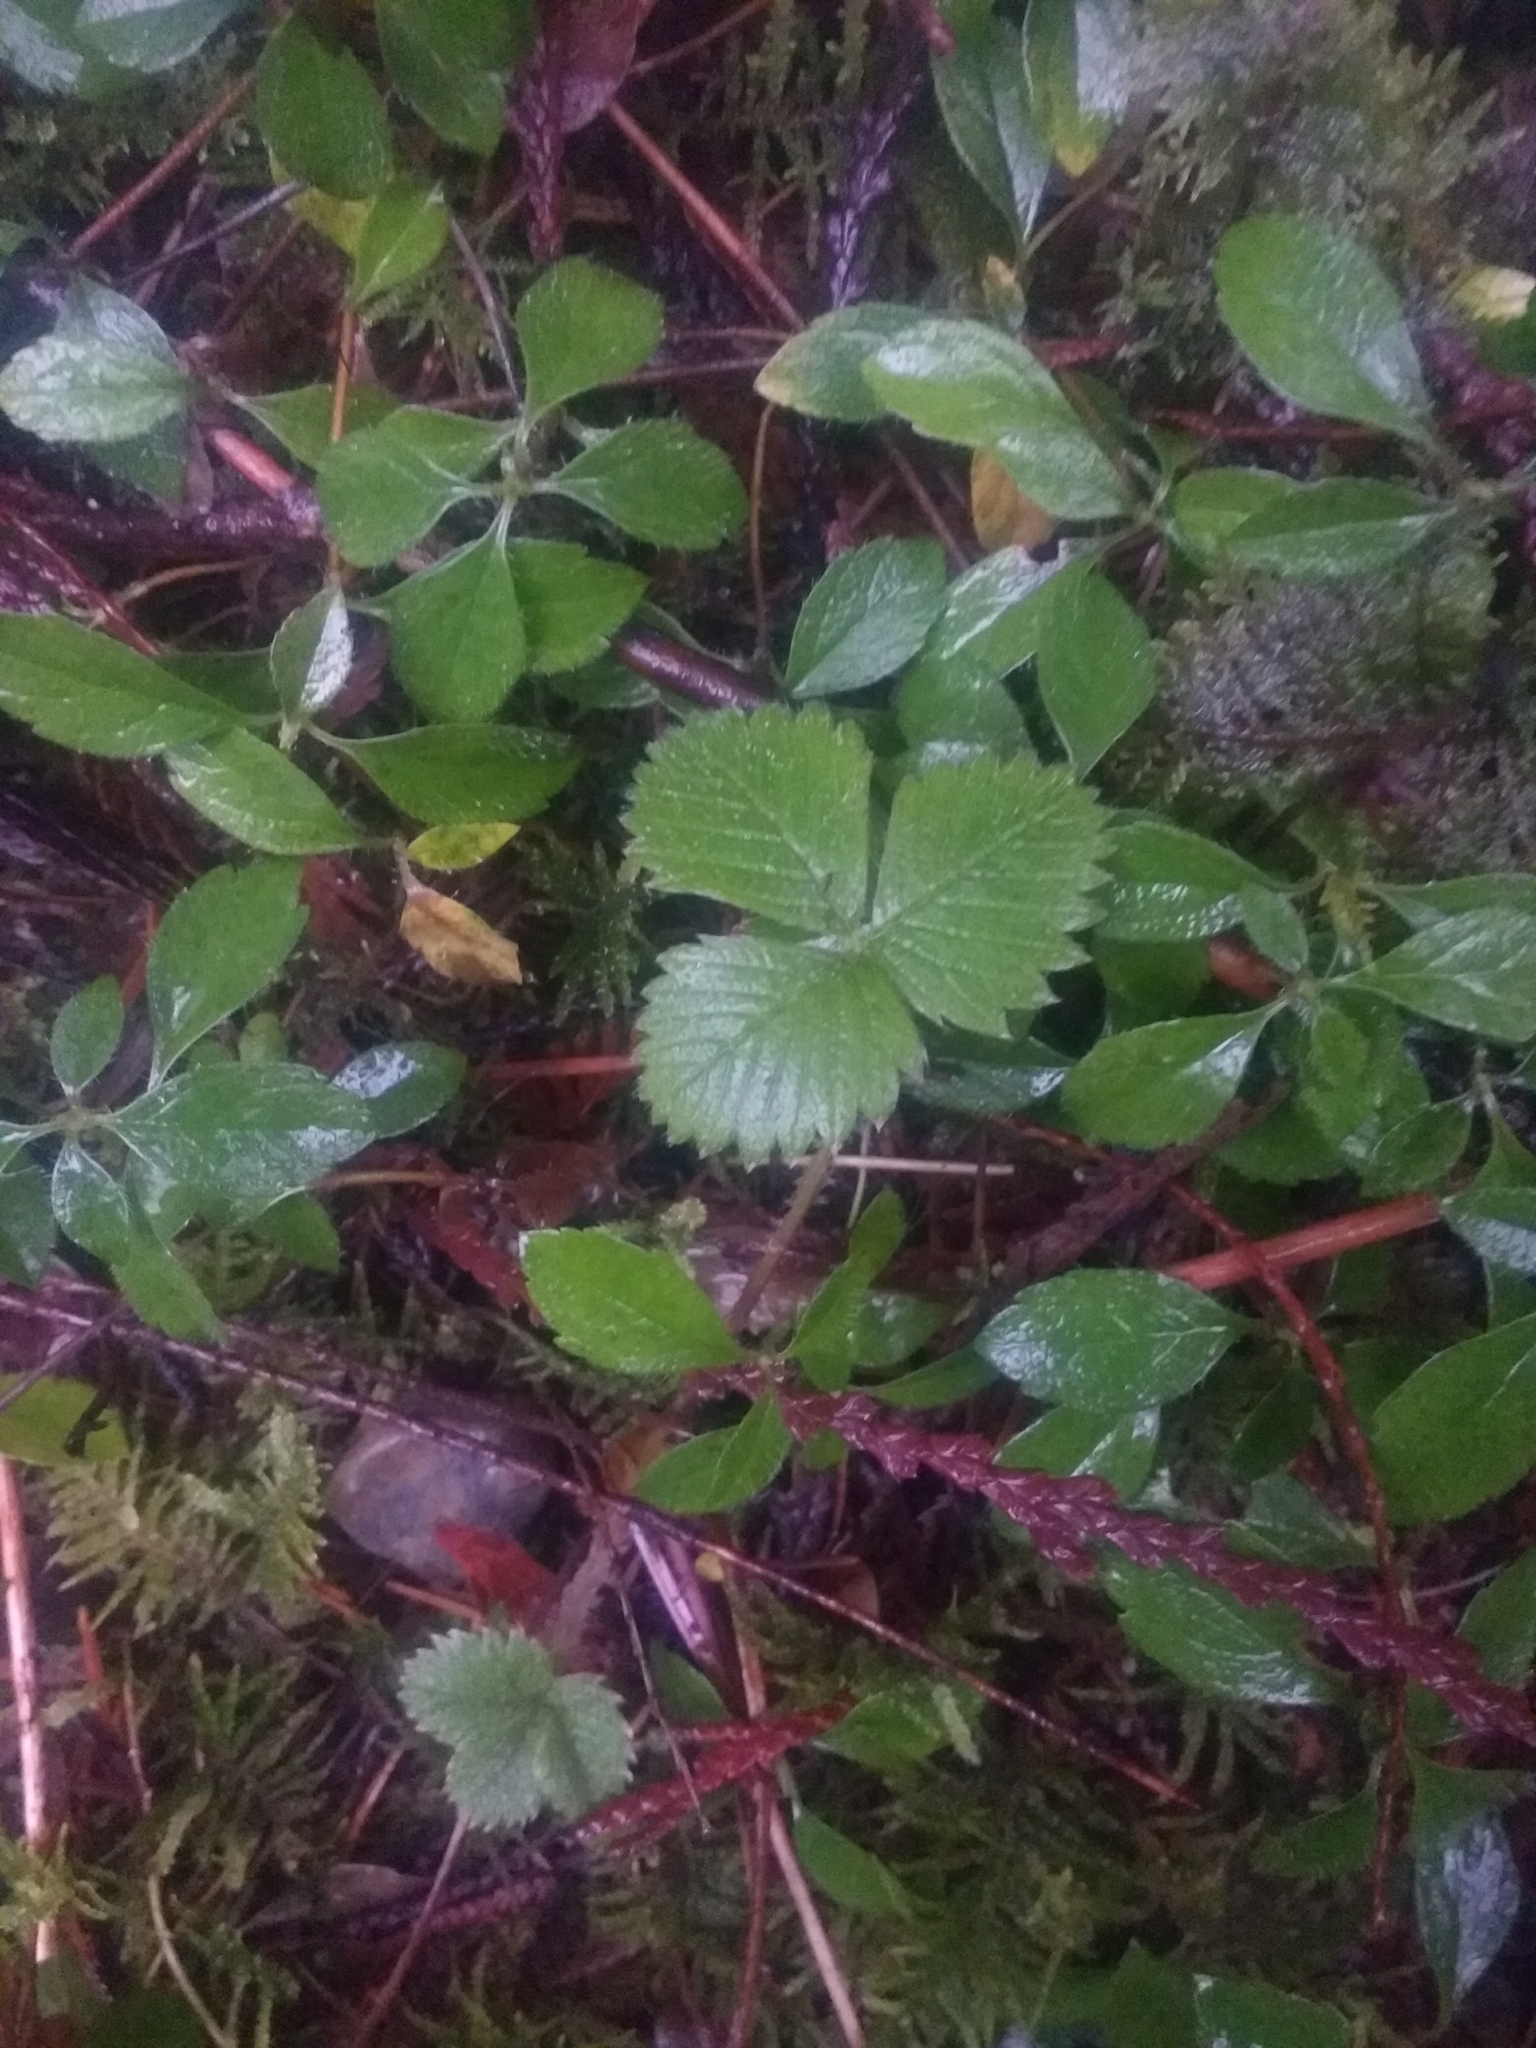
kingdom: Plantae
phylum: Tracheophyta
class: Magnoliopsida
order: Rosales
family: Rosaceae
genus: Fragaria
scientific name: Fragaria vesca
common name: Wild strawberry
